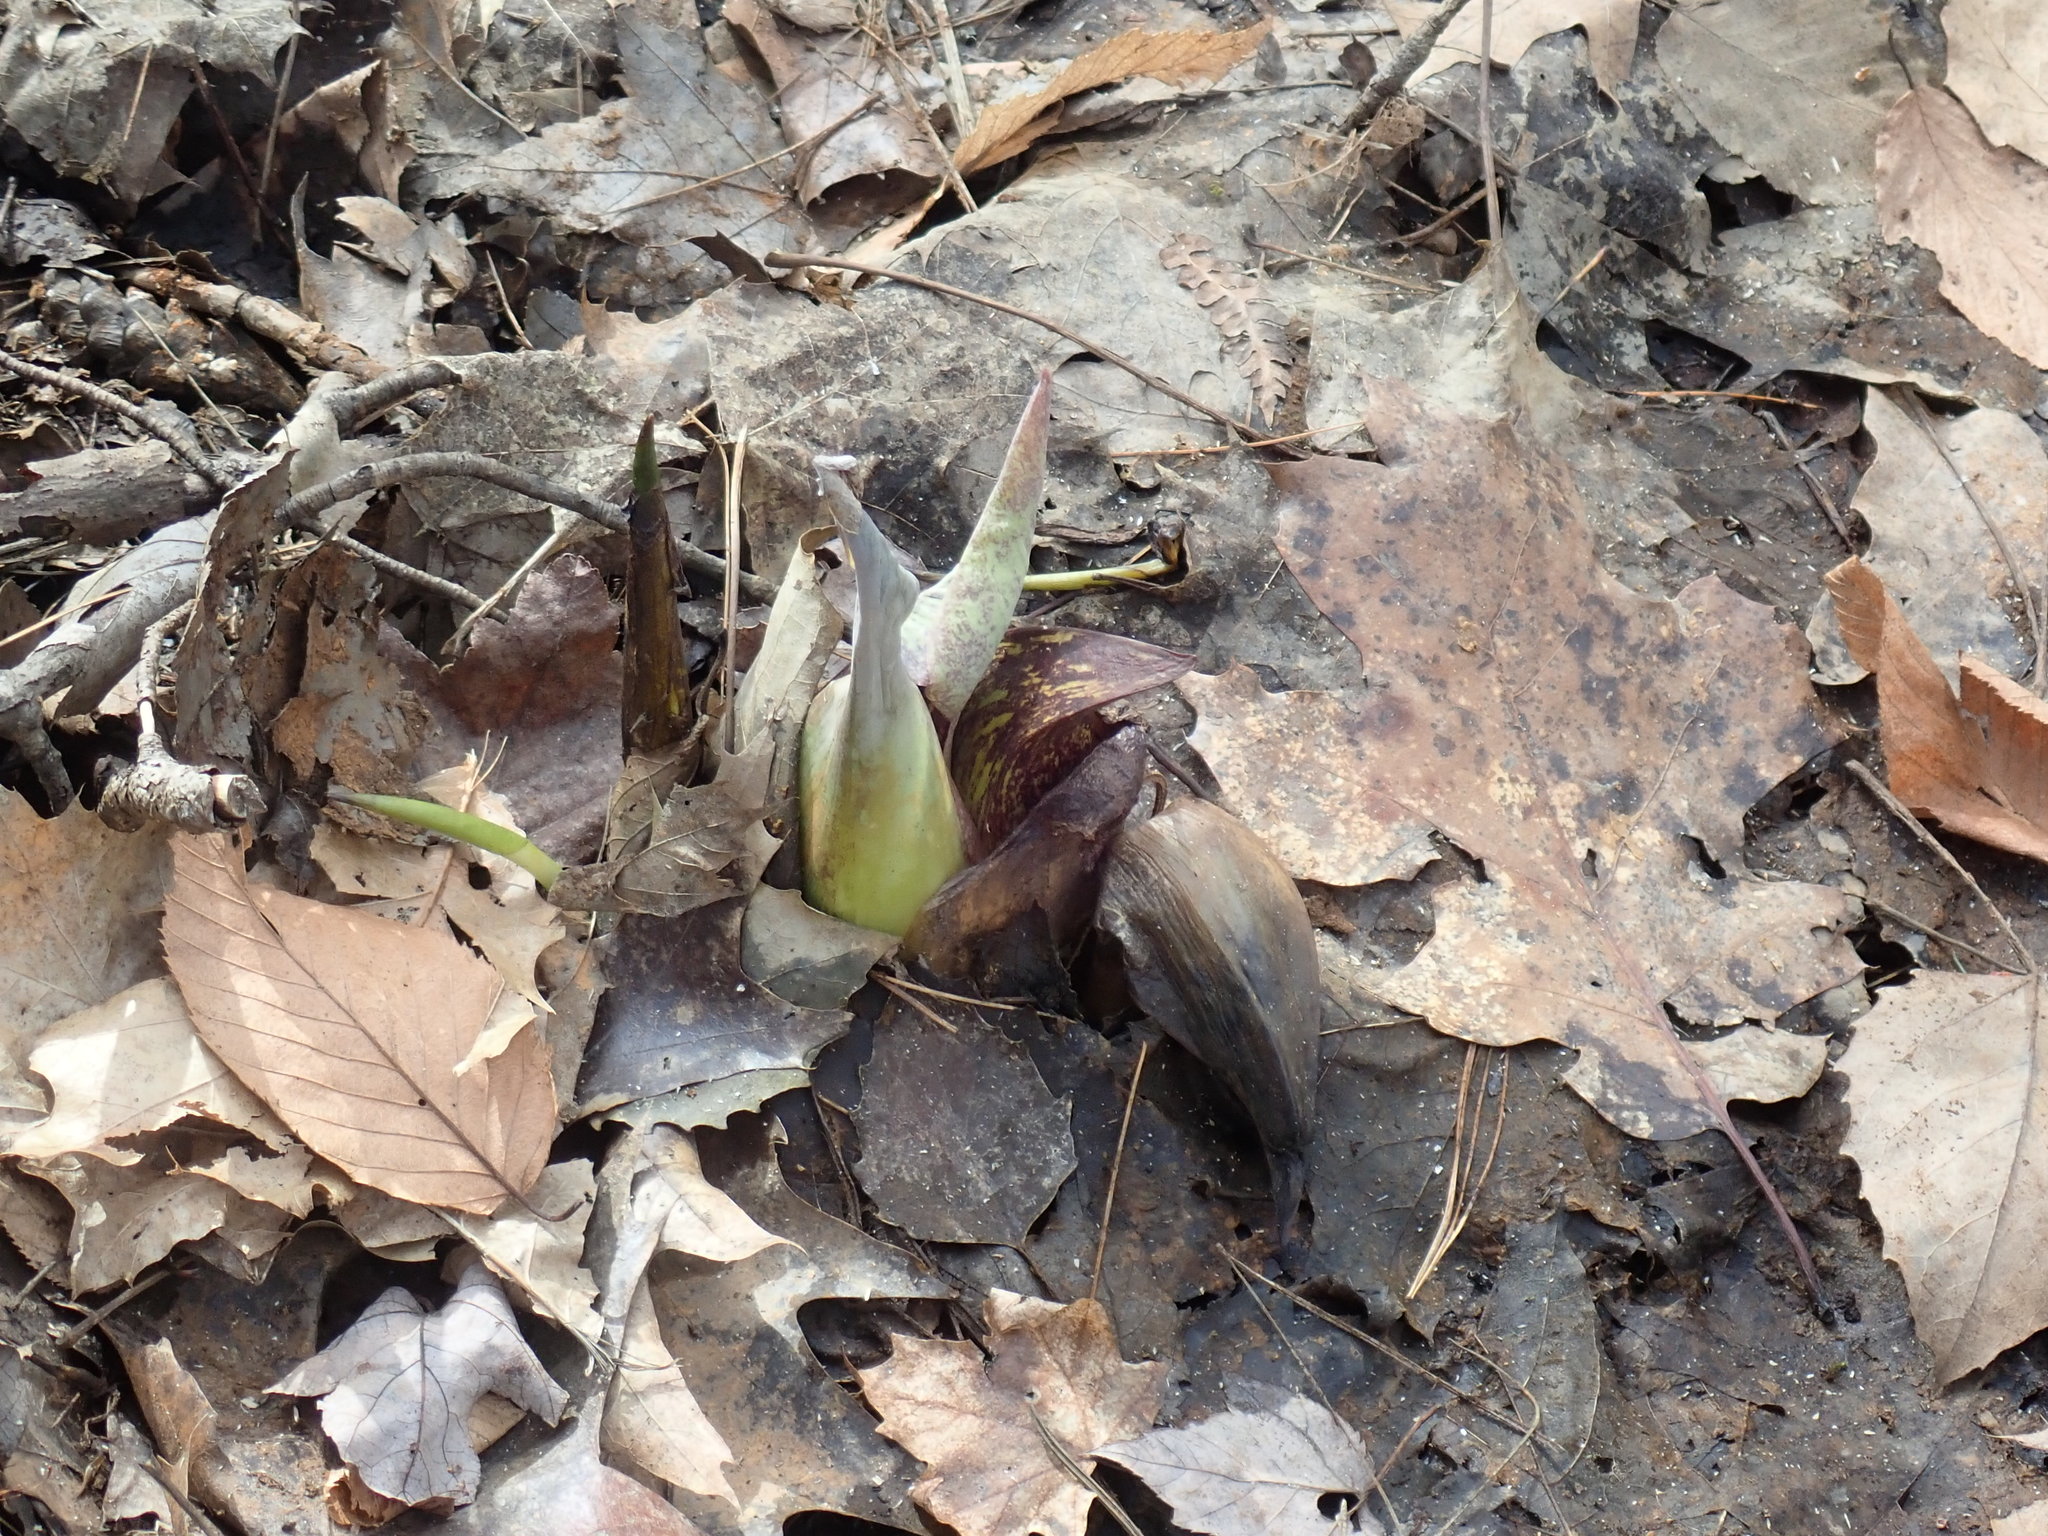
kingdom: Plantae
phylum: Tracheophyta
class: Liliopsida
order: Alismatales
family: Araceae
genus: Symplocarpus
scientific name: Symplocarpus foetidus
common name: Eastern skunk cabbage
